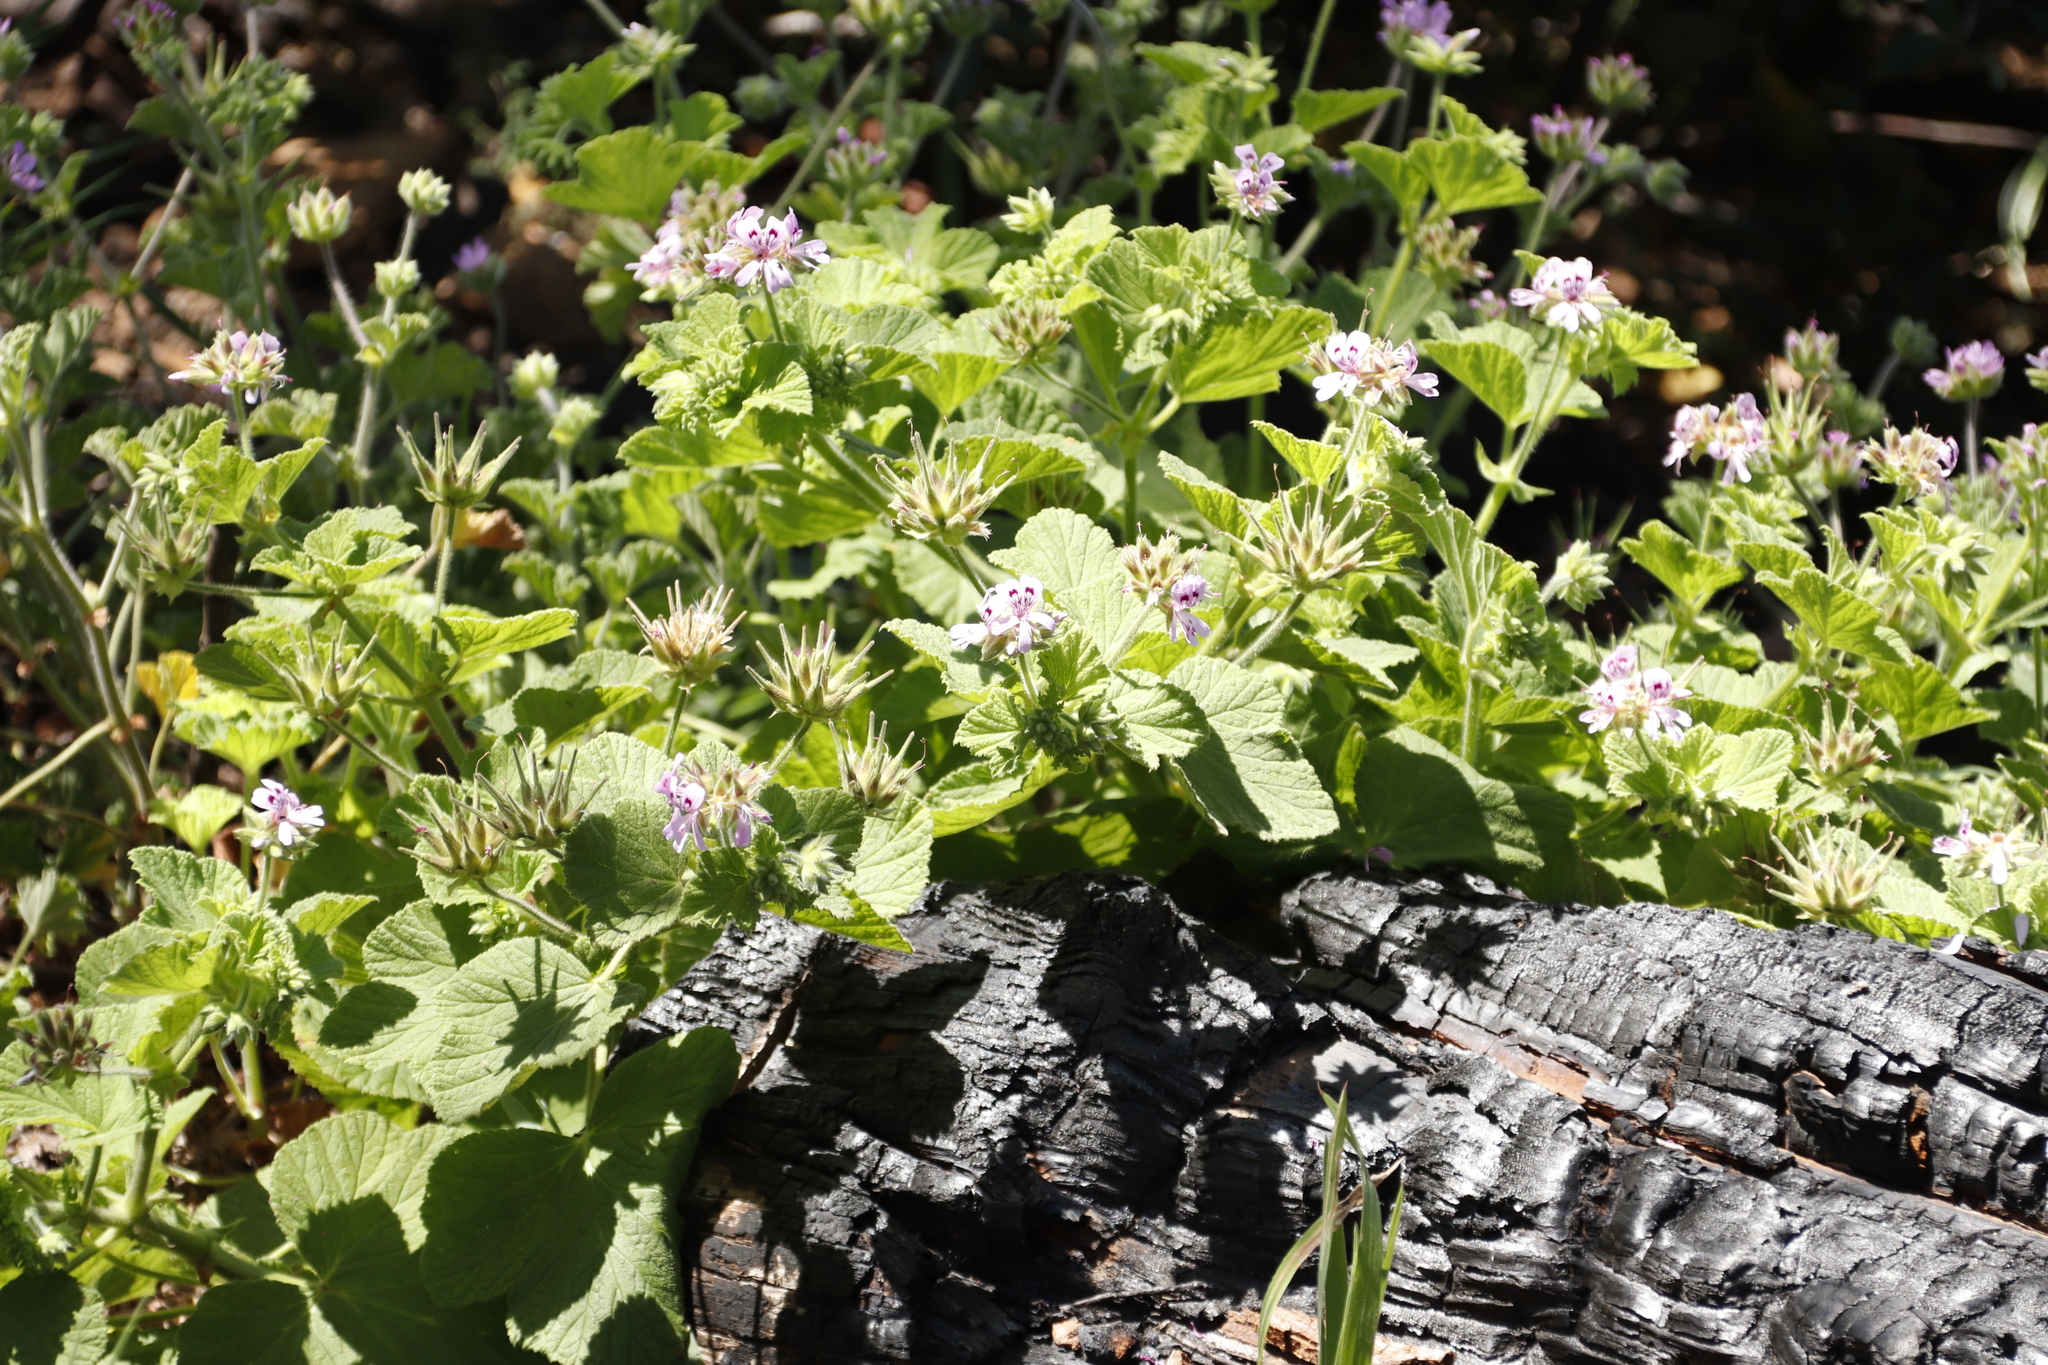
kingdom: Plantae
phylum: Tracheophyta
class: Magnoliopsida
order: Geraniales
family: Geraniaceae
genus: Pelargonium
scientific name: Pelargonium vitifolium
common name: Grapeleaf geranium
